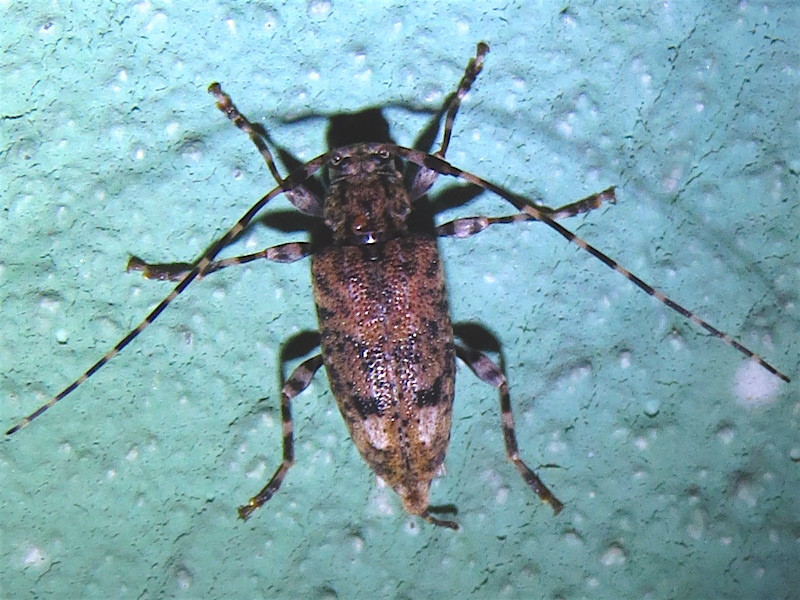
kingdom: Animalia
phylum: Arthropoda
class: Insecta
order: Coleoptera
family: Cerambycidae
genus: Astyleiopus
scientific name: Astyleiopus variegatus
